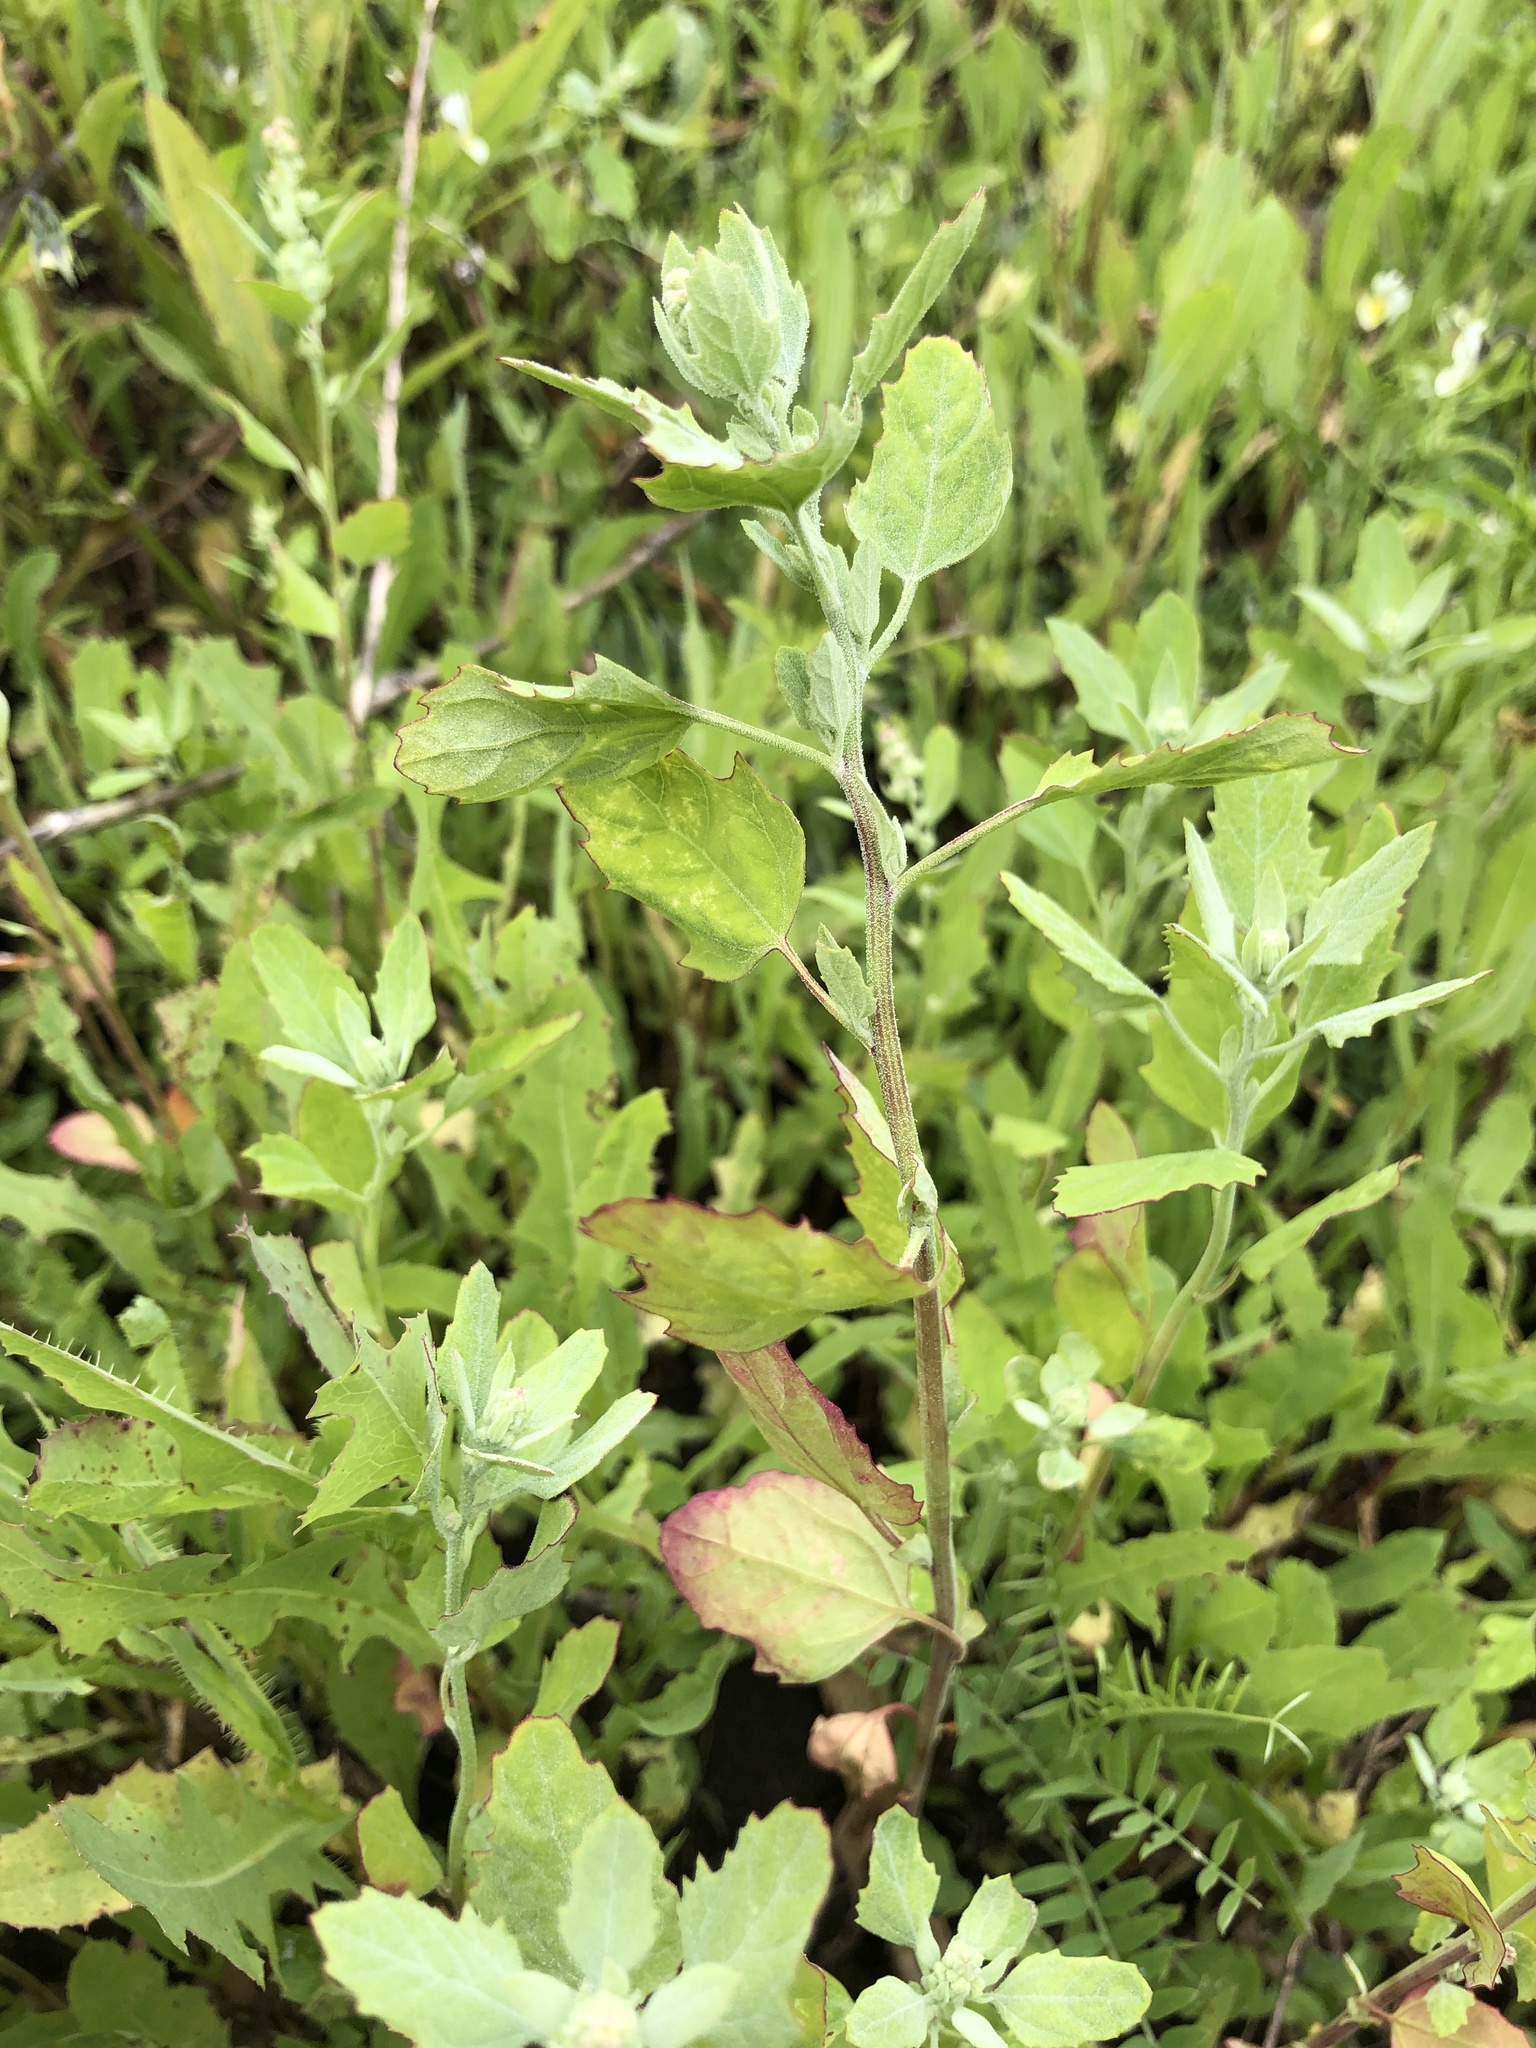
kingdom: Plantae
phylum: Tracheophyta
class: Magnoliopsida
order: Caryophyllales
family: Amaranthaceae
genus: Chenopodium
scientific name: Chenopodium album
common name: Fat-hen
